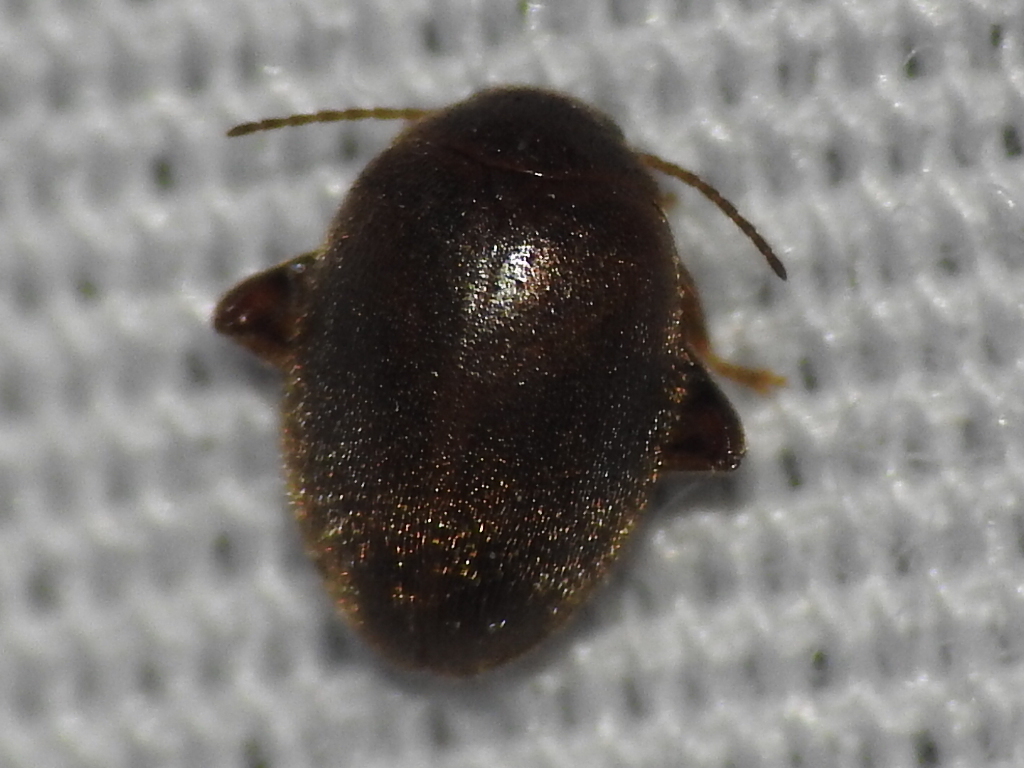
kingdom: Animalia
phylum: Arthropoda
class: Insecta
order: Coleoptera
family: Scirtidae
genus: Scirtes
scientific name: Scirtes tibialis
